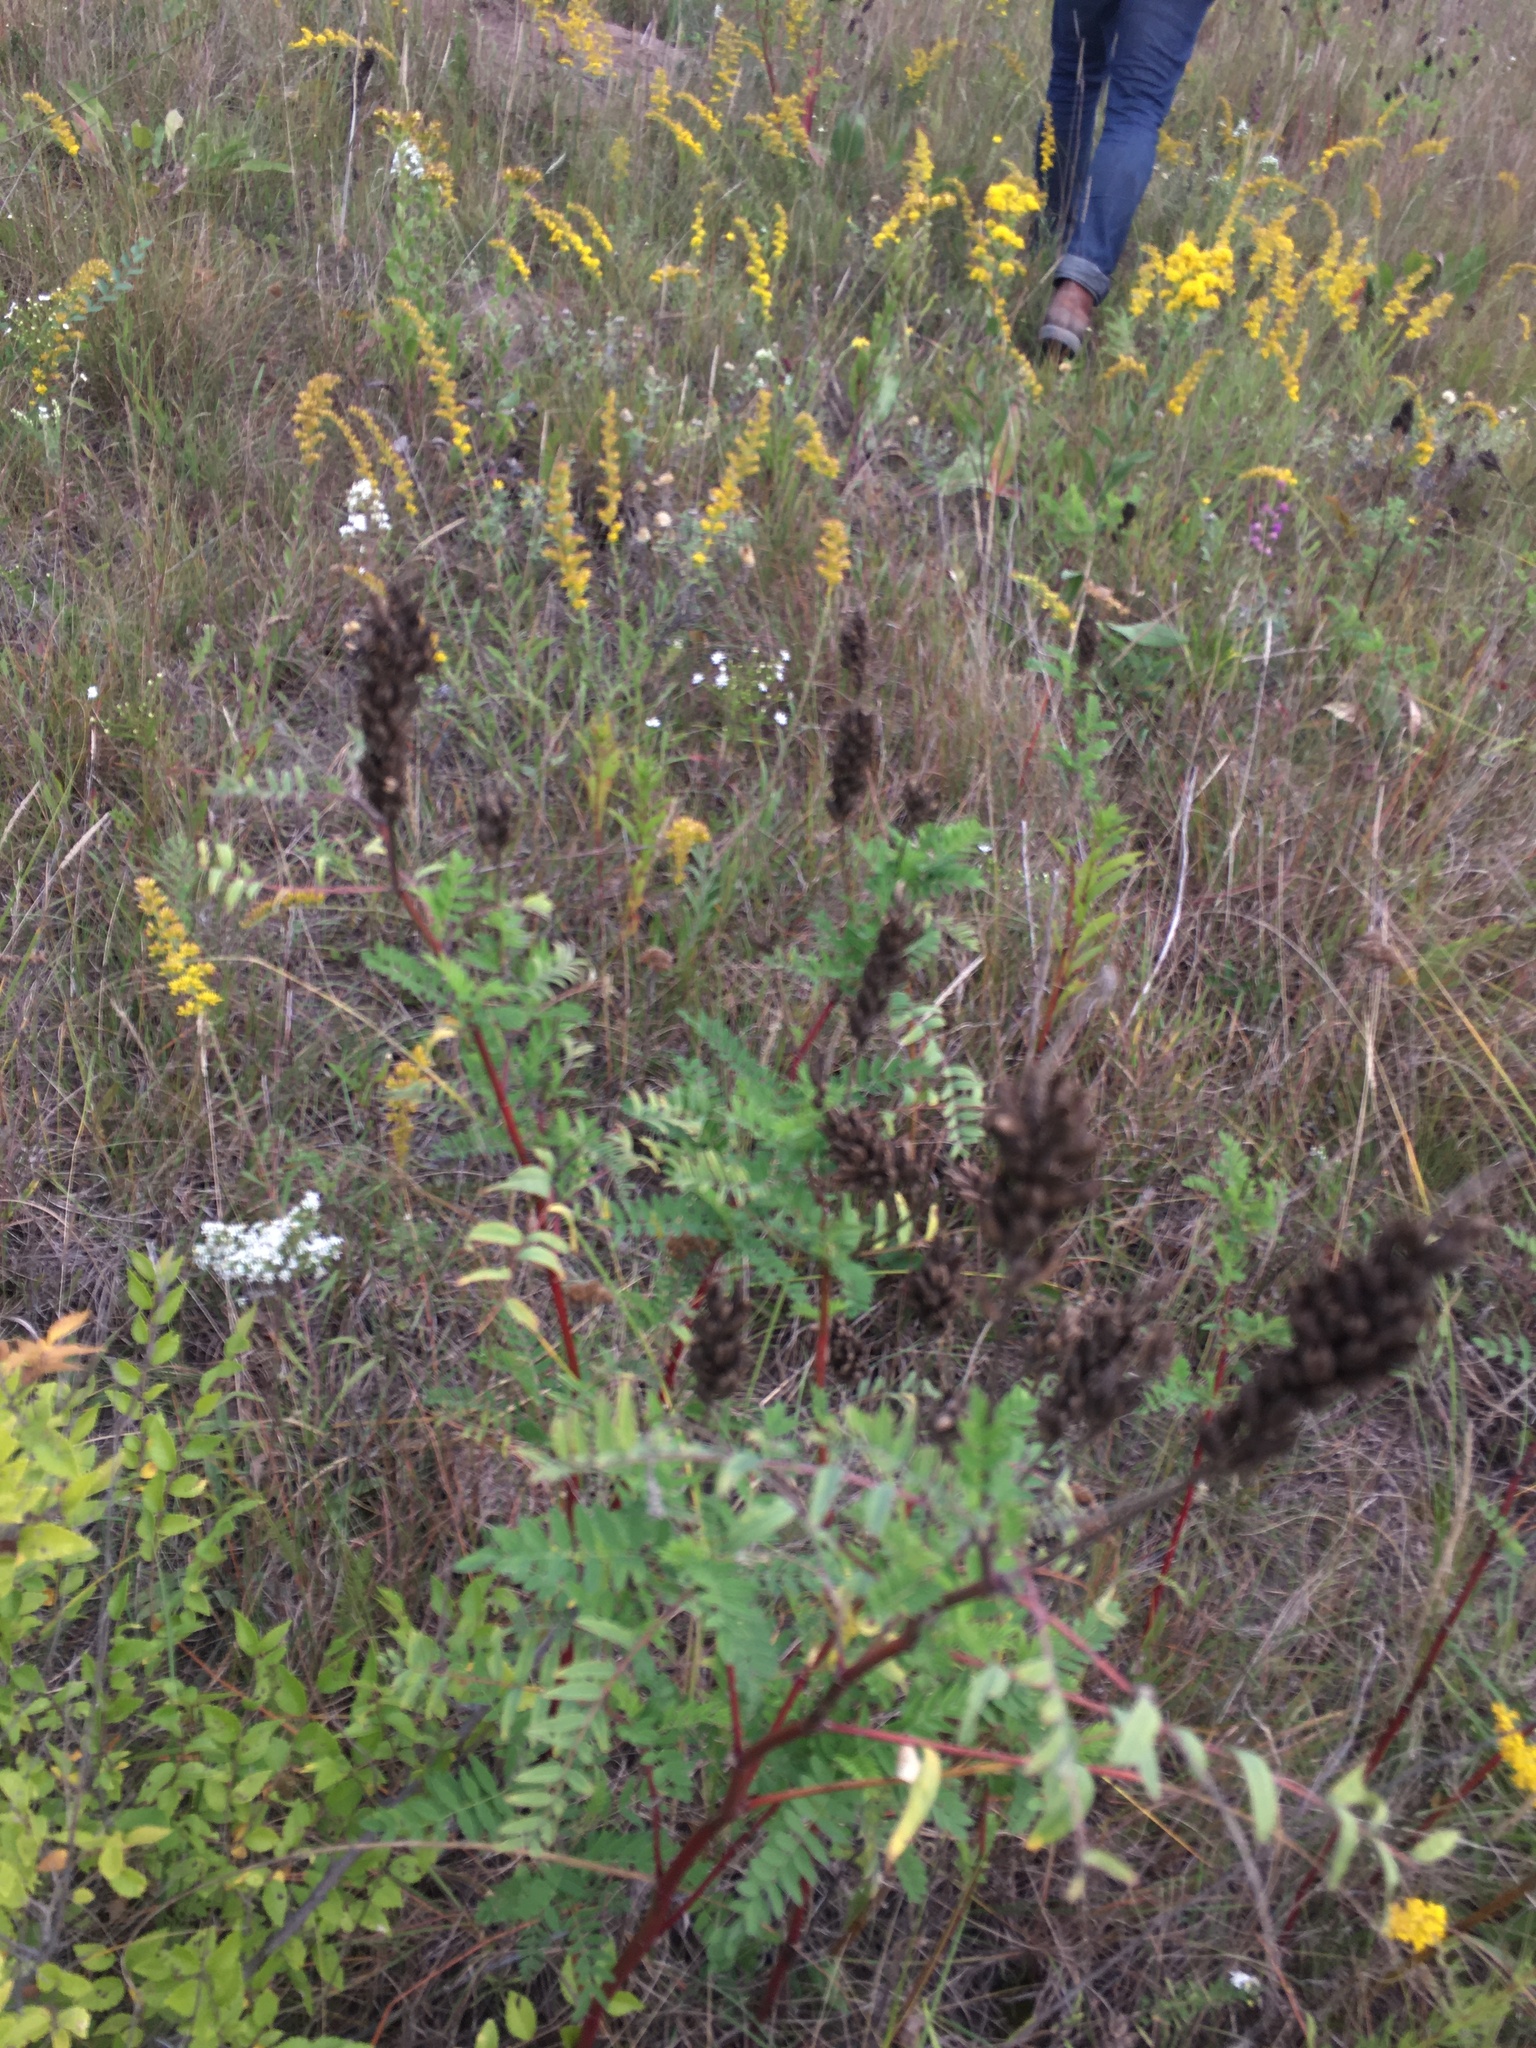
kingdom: Plantae
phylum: Tracheophyta
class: Magnoliopsida
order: Fabales
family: Fabaceae
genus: Astragalus
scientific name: Astragalus canadensis
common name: Canada milk-vetch
